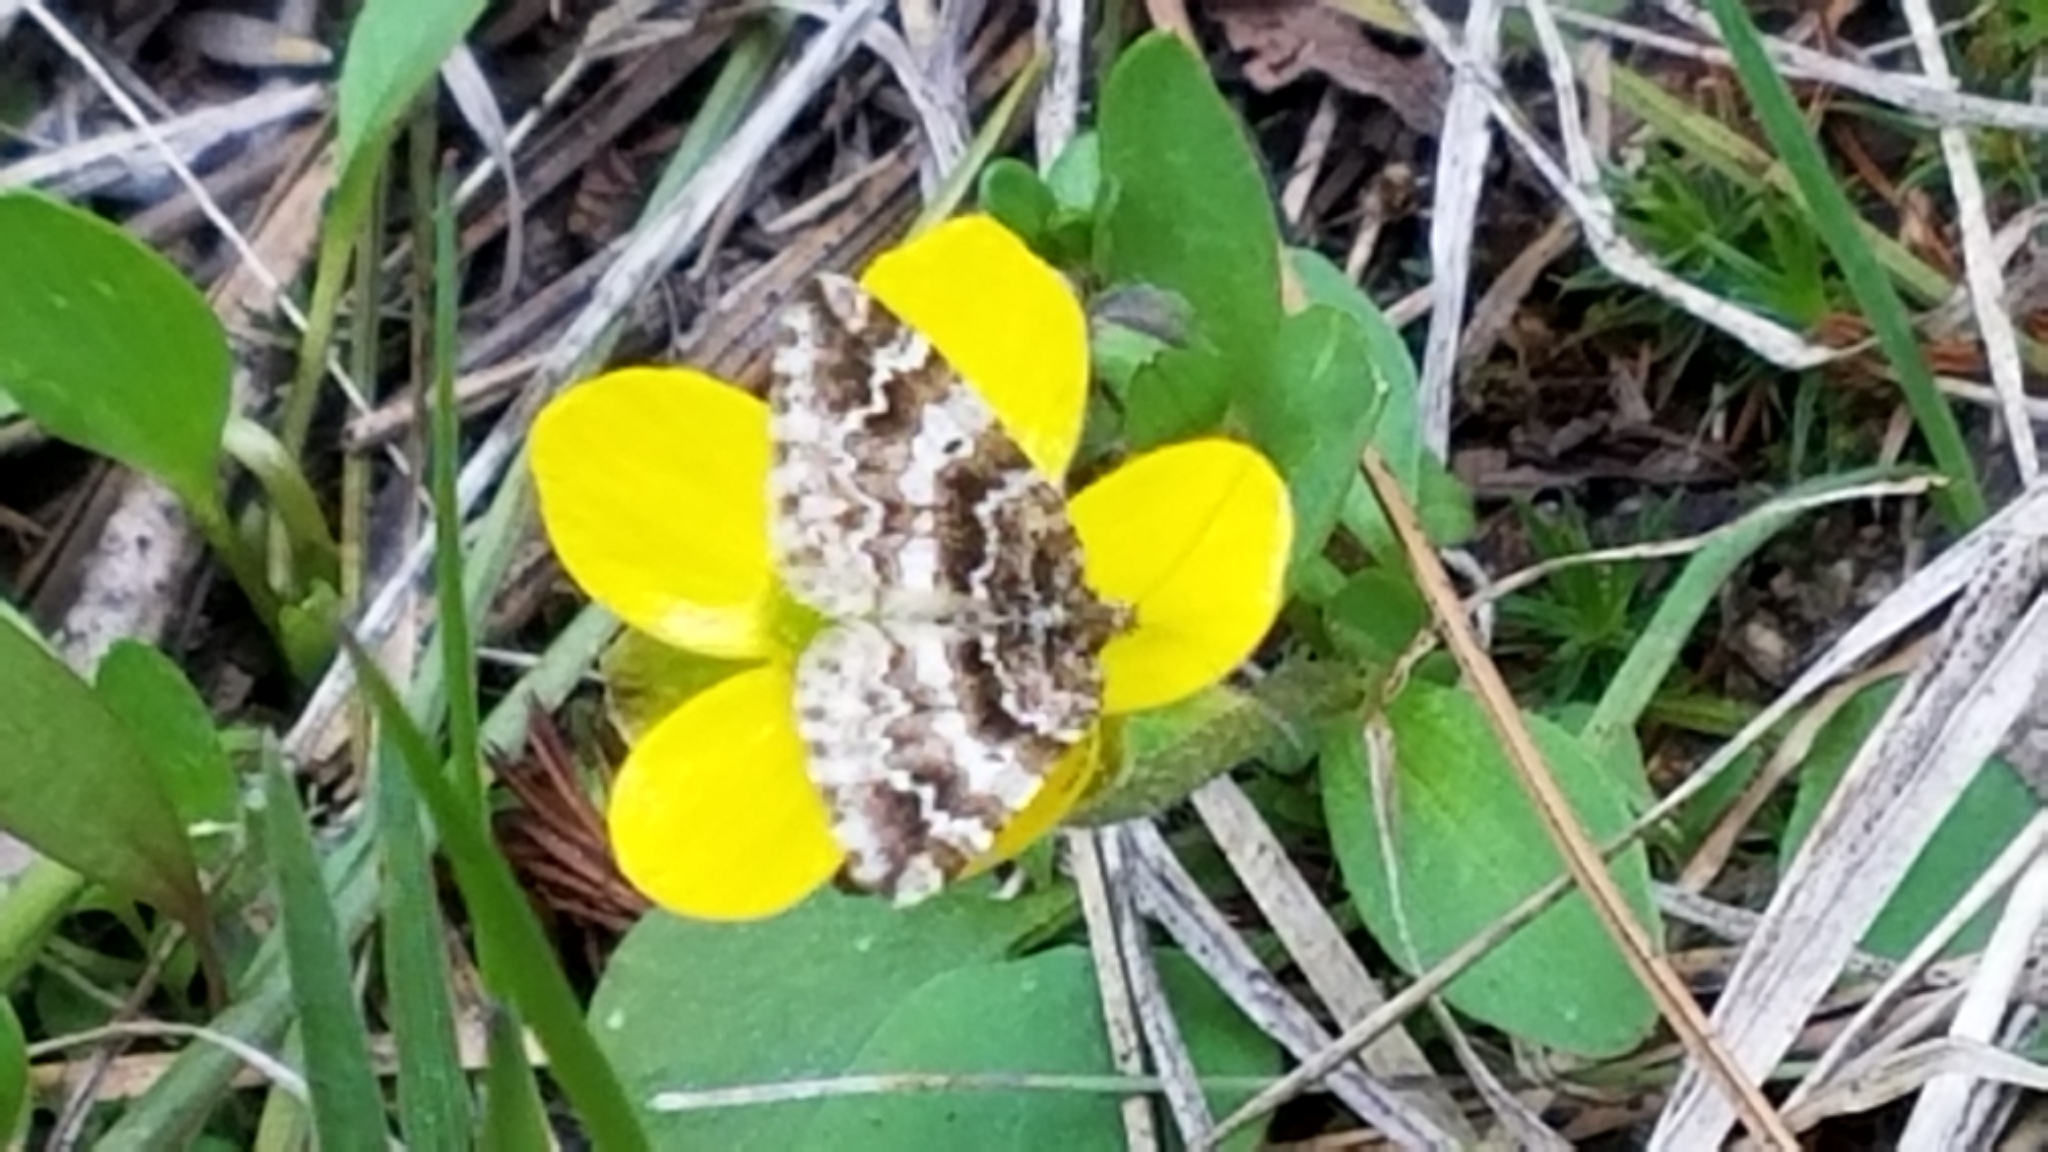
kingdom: Animalia
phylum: Arthropoda
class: Insecta
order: Lepidoptera
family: Geometridae
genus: Enchoria
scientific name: Enchoria lacteata
